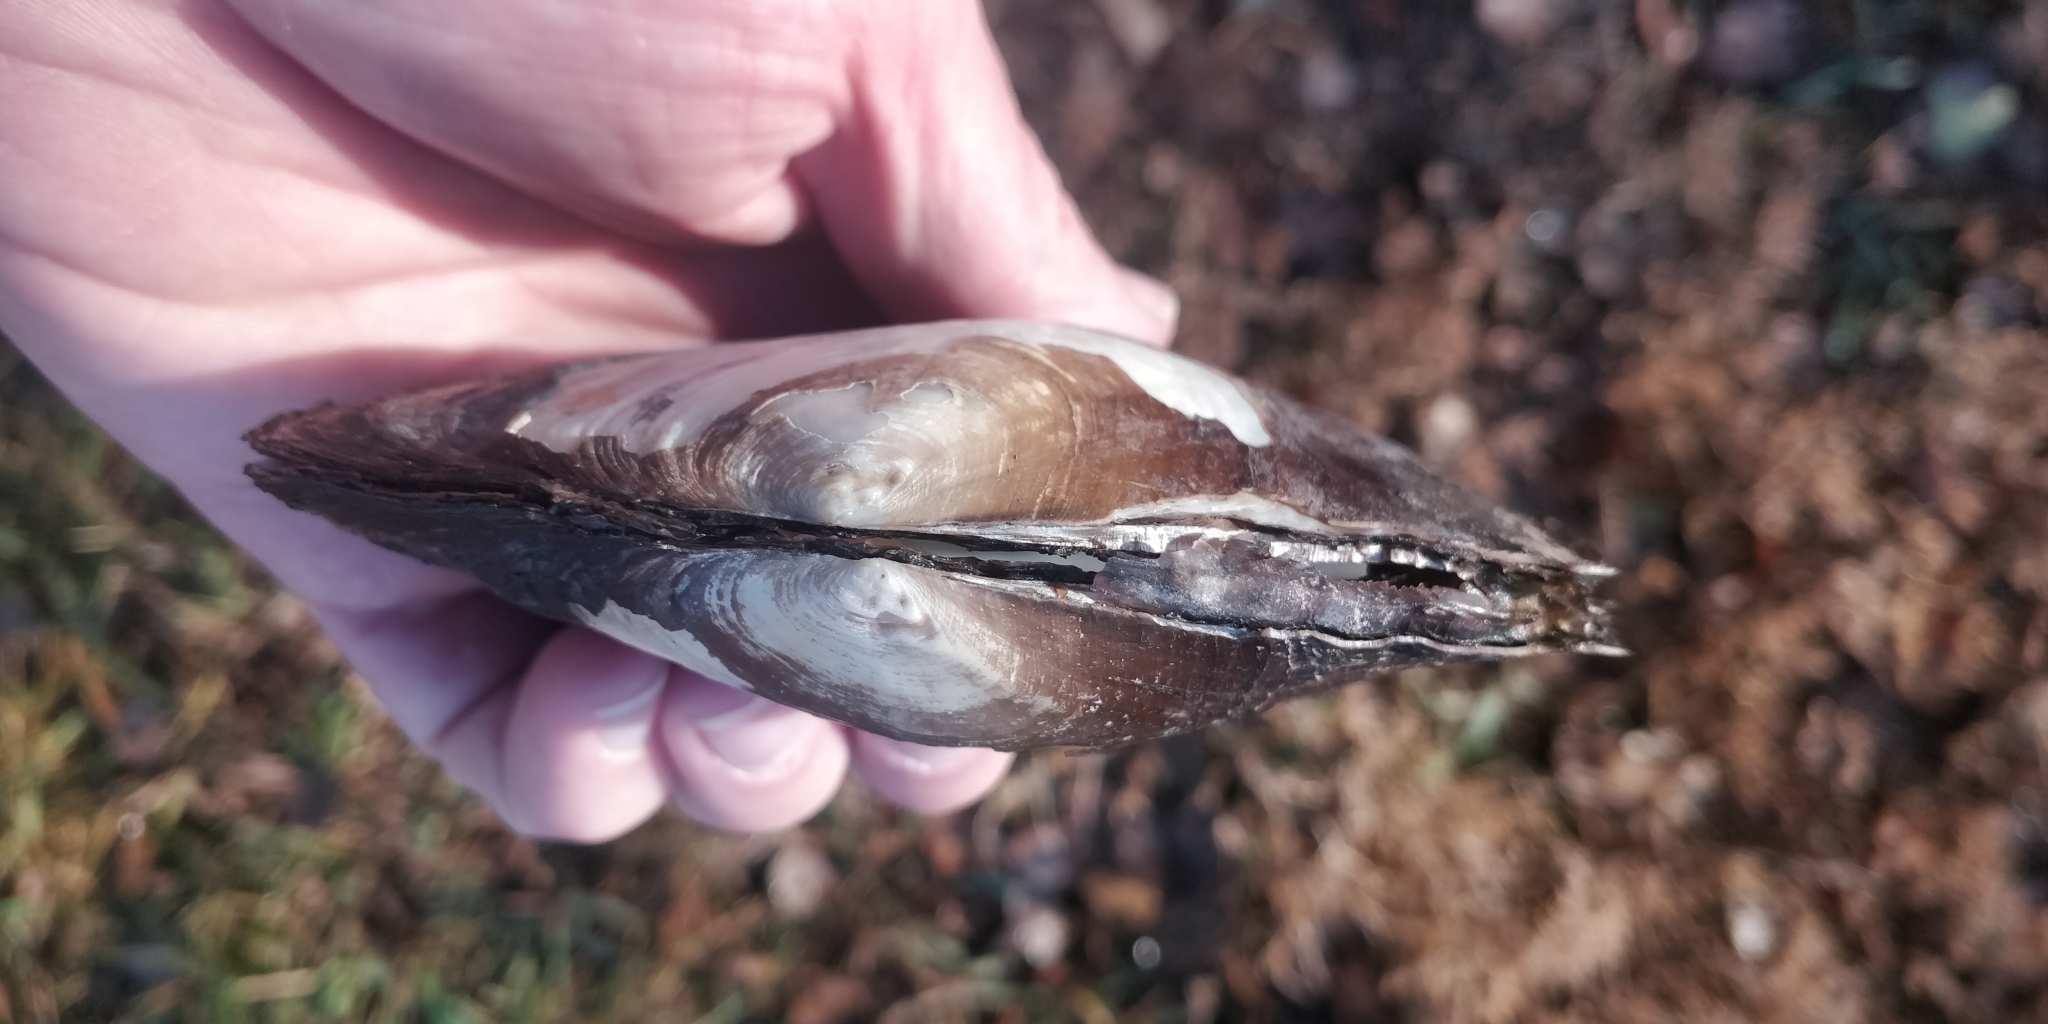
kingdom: Animalia
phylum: Mollusca
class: Bivalvia
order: Unionida
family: Unionidae
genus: Lasmigona
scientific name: Lasmigona complanata
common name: White heelsplitter
